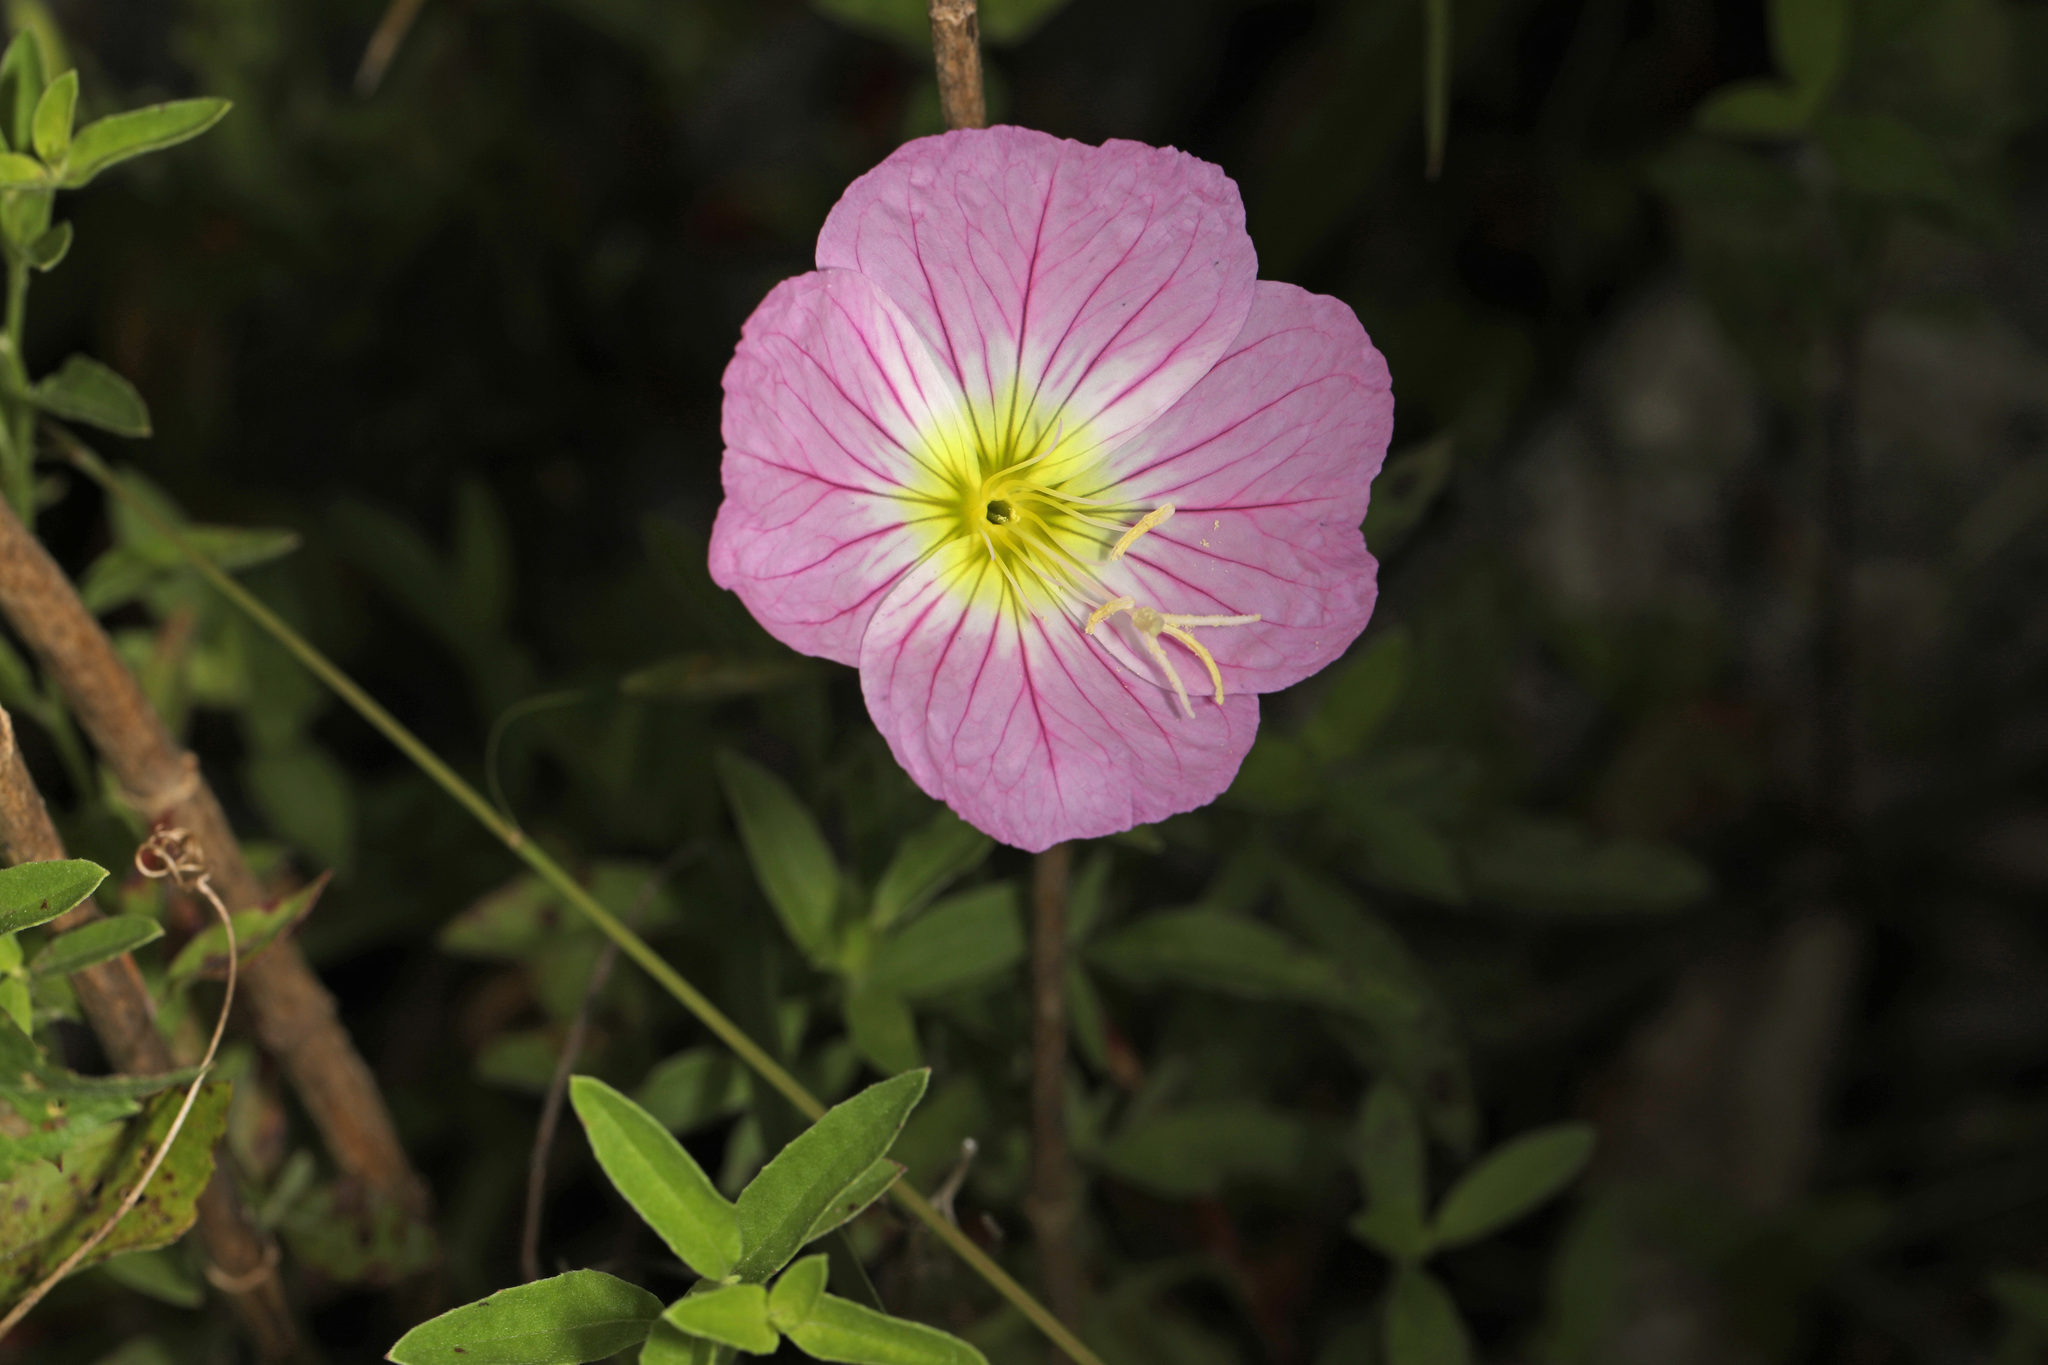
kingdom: Plantae
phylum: Tracheophyta
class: Magnoliopsida
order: Myrtales
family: Onagraceae
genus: Oenothera
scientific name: Oenothera speciosa
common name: White evening-primrose
